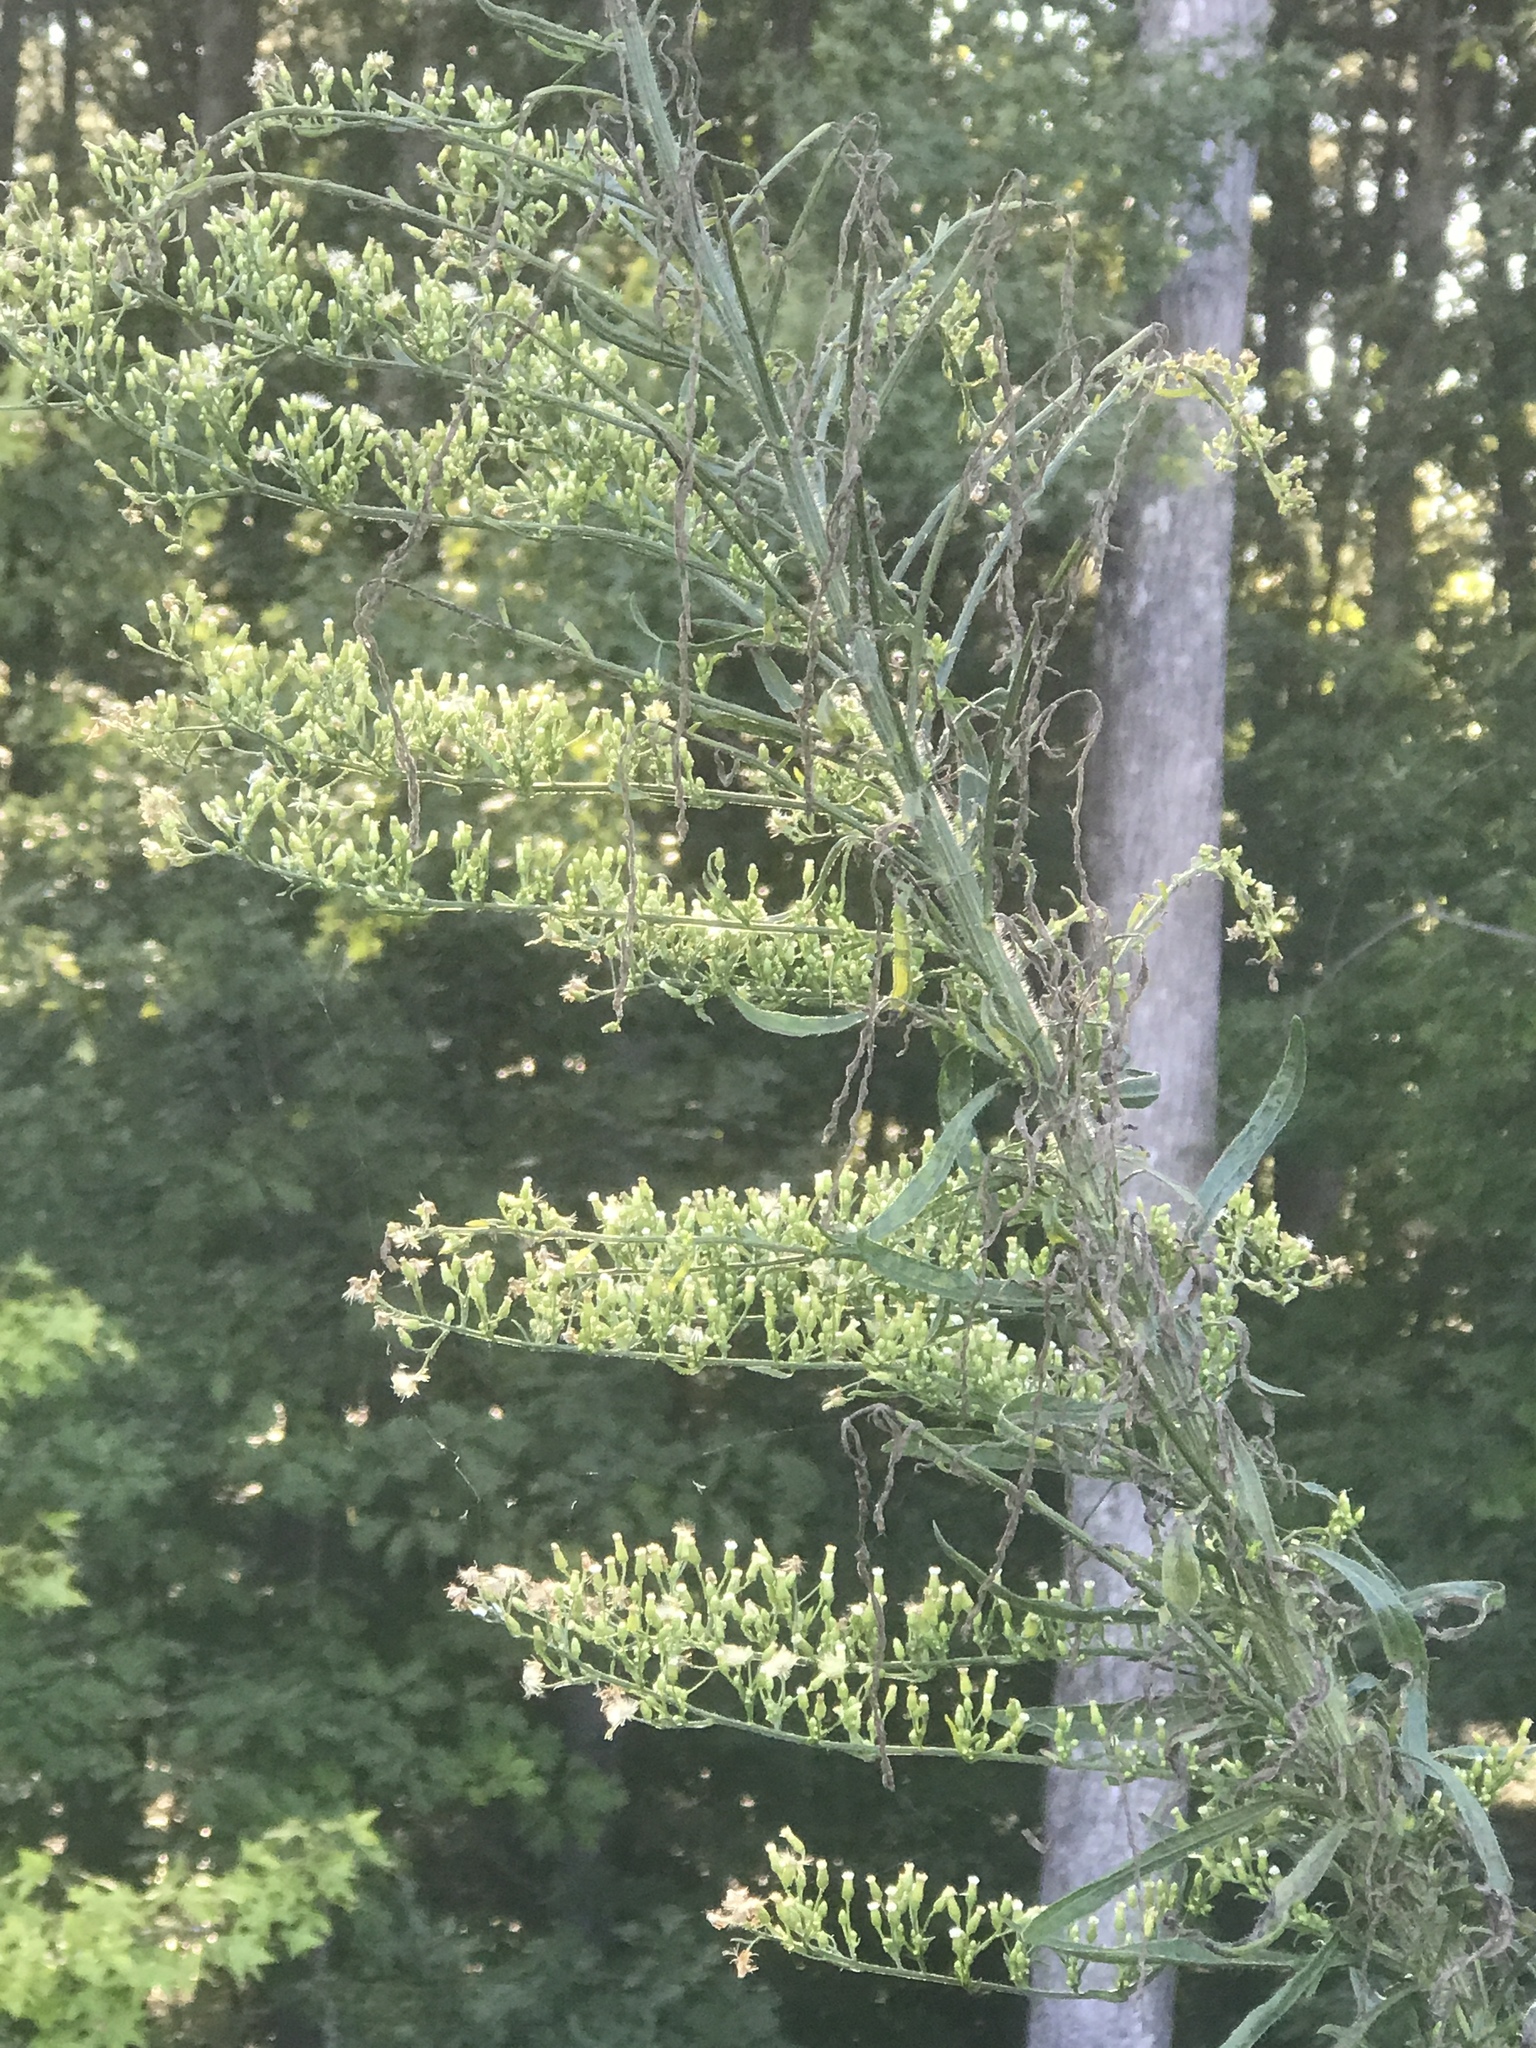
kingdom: Plantae
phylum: Tracheophyta
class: Magnoliopsida
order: Asterales
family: Asteraceae
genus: Erigeron
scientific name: Erigeron canadensis
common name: Canadian fleabane
